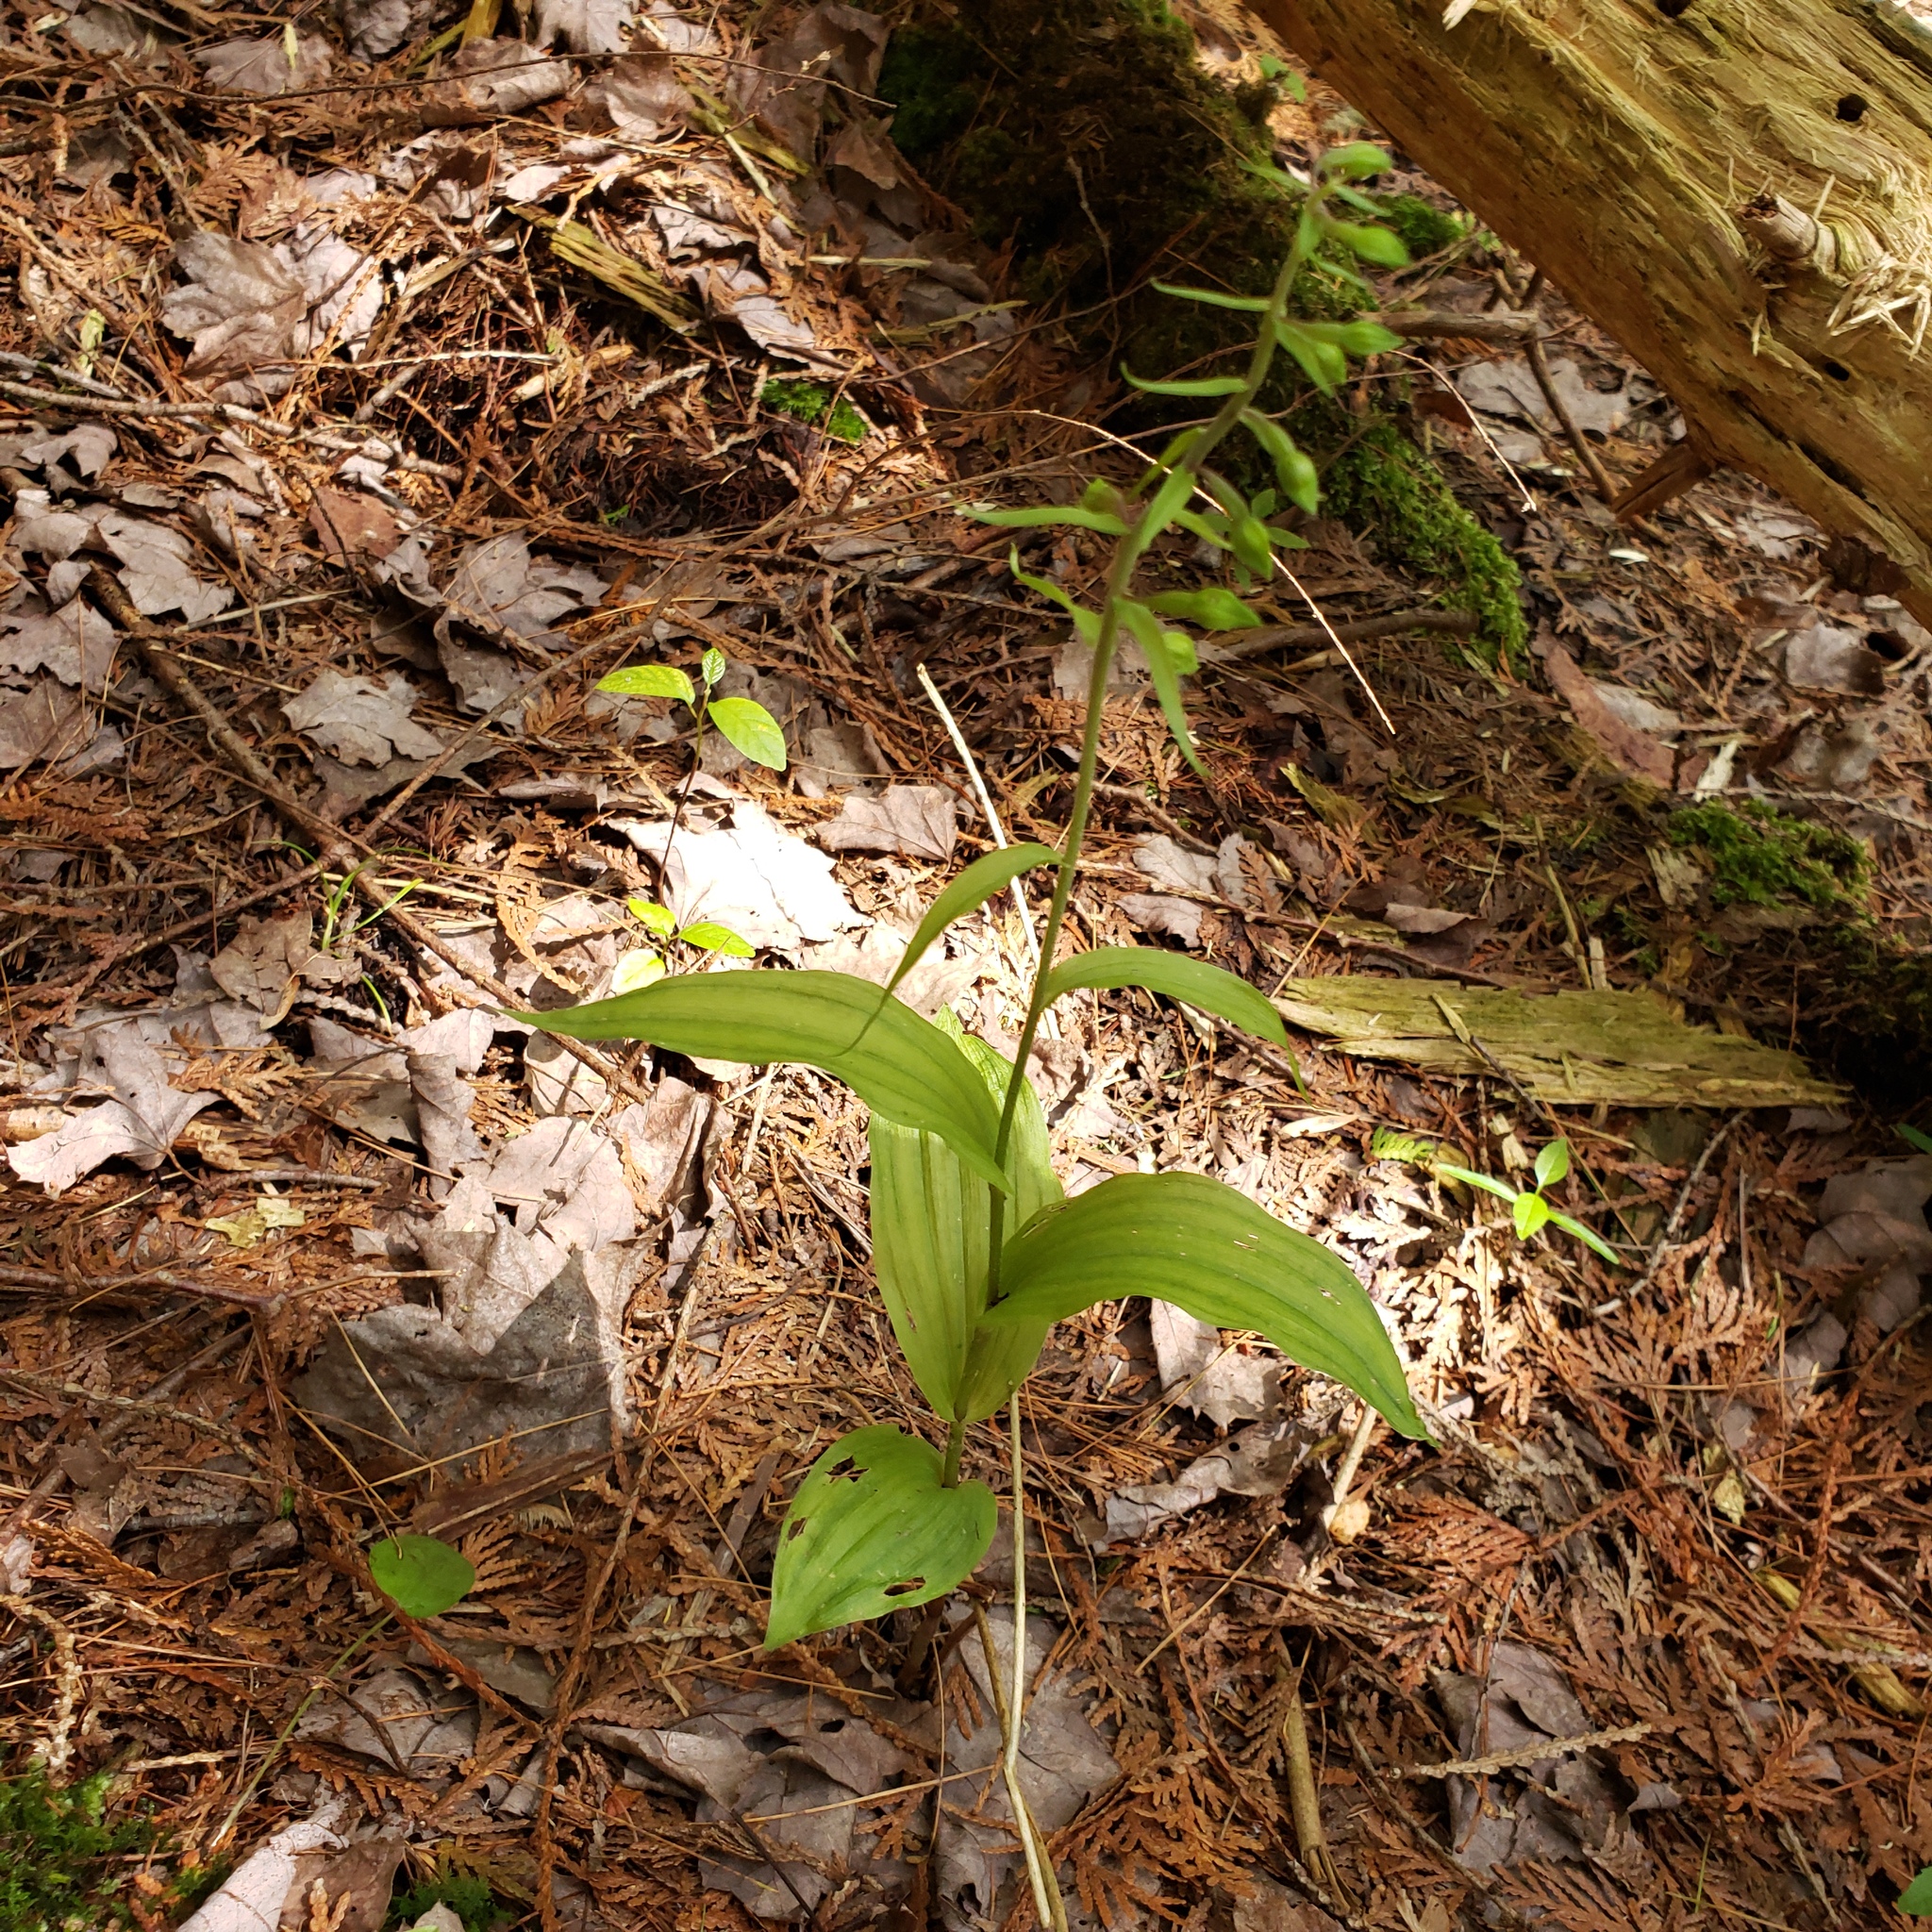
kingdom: Plantae
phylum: Tracheophyta
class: Liliopsida
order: Asparagales
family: Orchidaceae
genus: Epipactis
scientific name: Epipactis helleborine
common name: Broad-leaved helleborine
